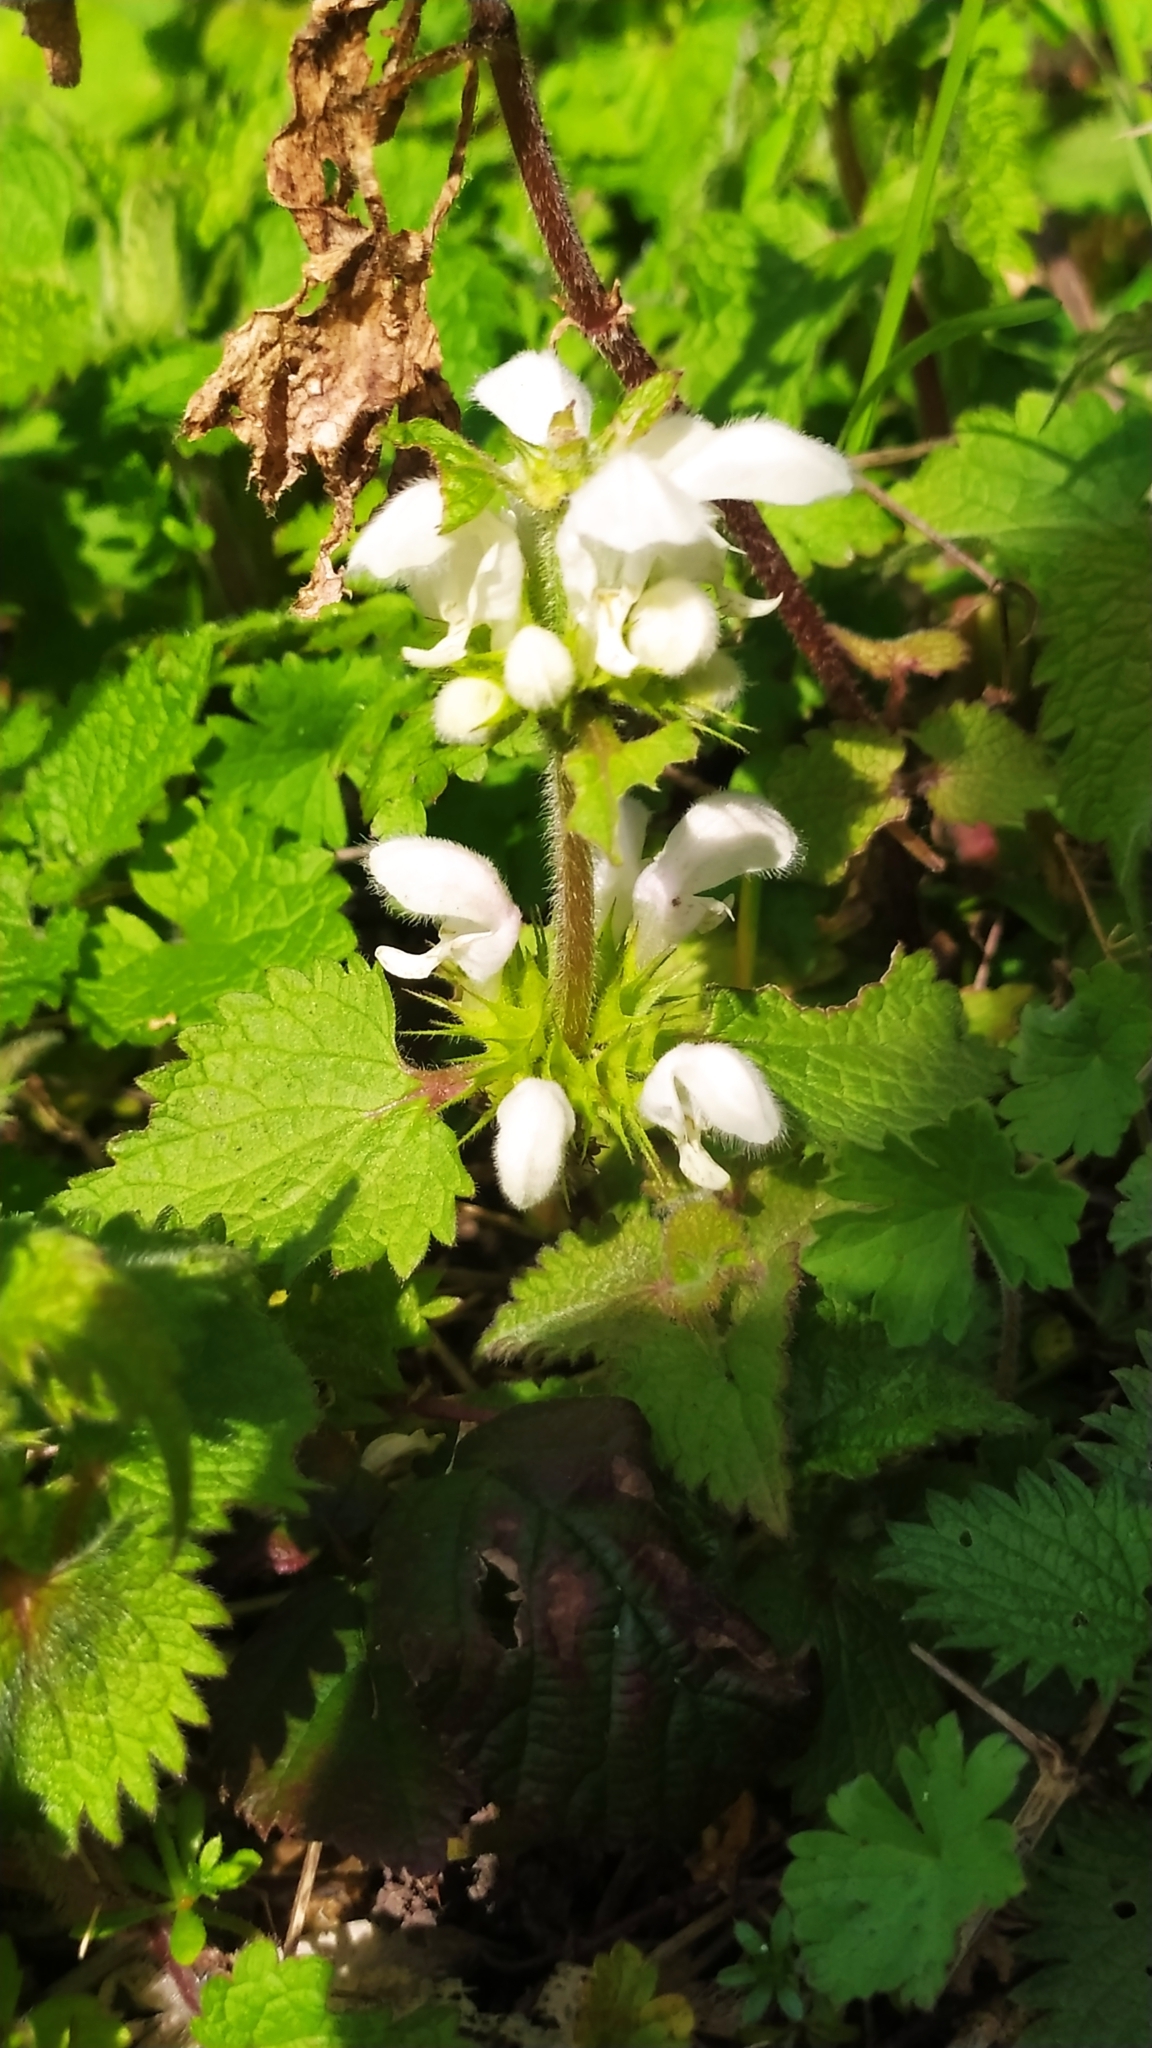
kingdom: Plantae
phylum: Tracheophyta
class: Magnoliopsida
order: Lamiales
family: Lamiaceae
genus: Lamium
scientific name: Lamium album
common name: White dead-nettle
